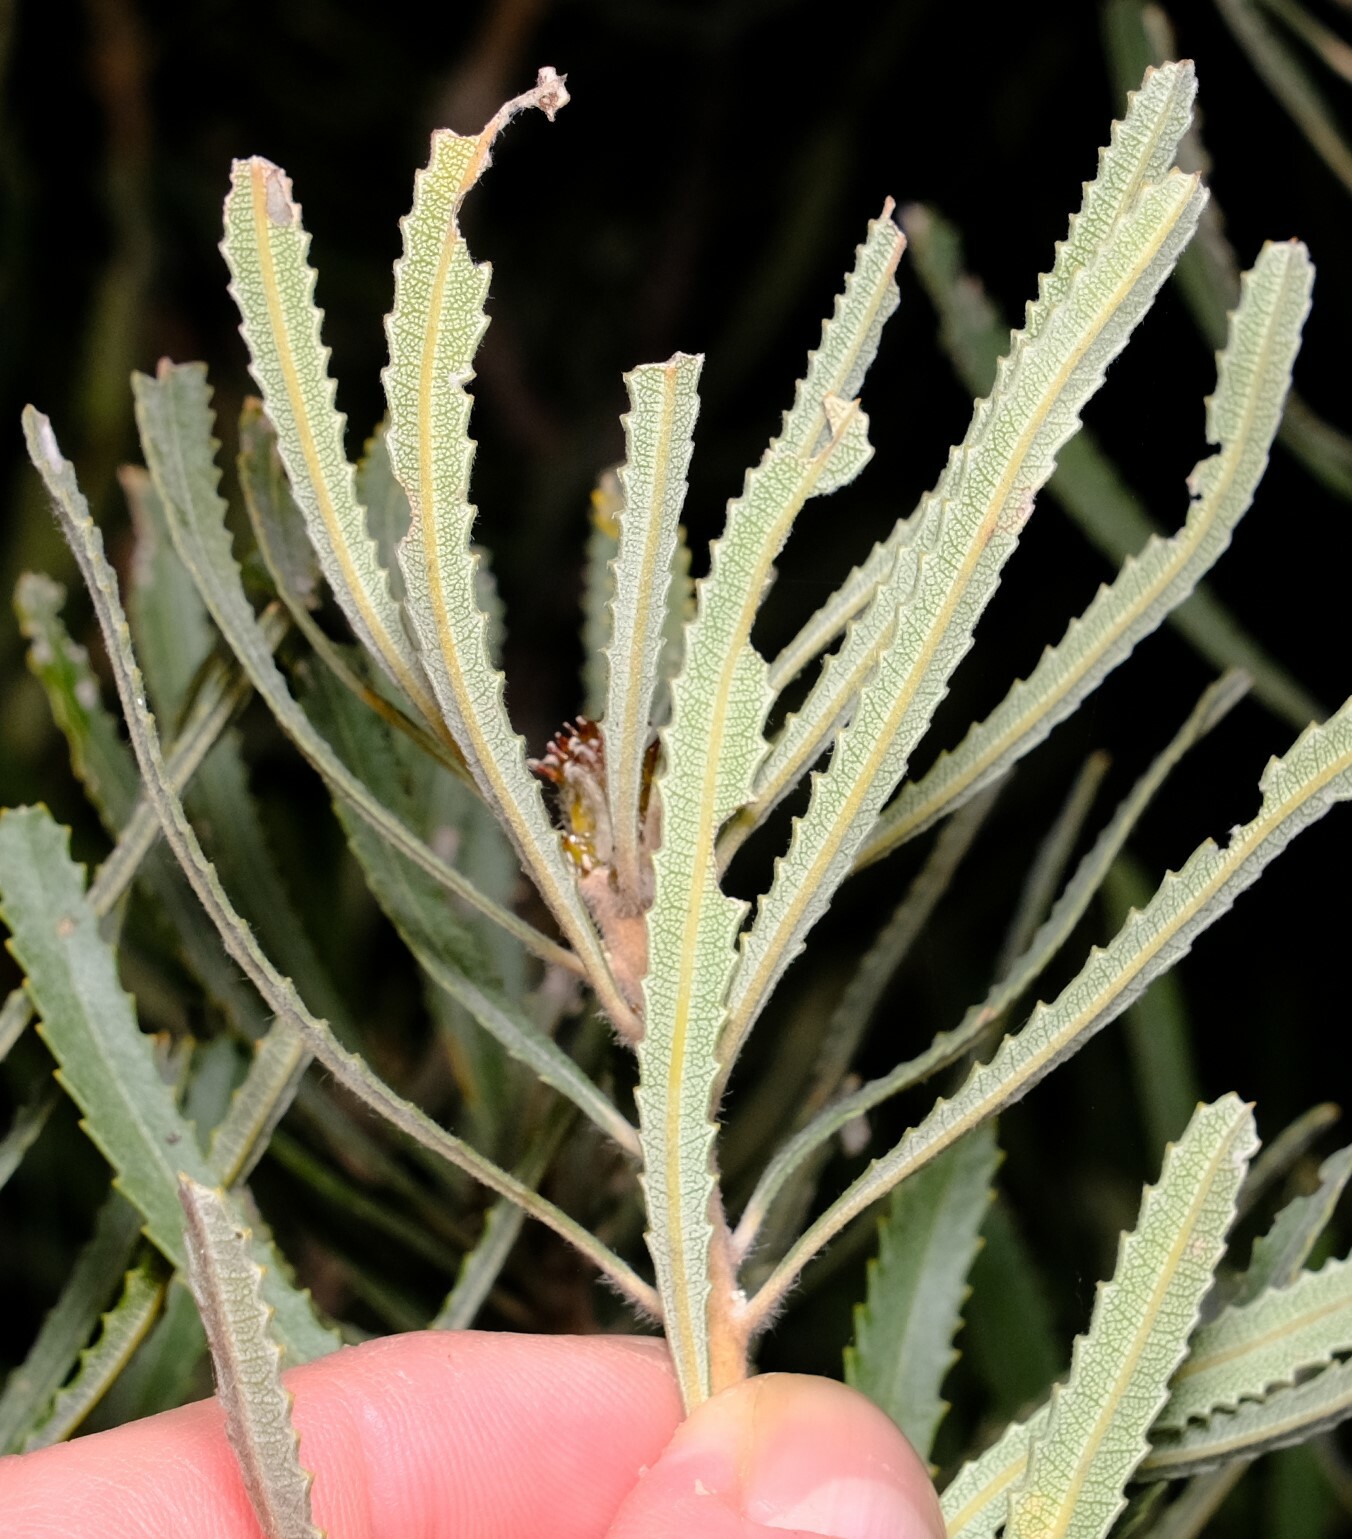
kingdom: Plantae
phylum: Tracheophyta
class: Magnoliopsida
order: Proteales
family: Proteaceae
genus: Banksia
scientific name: Banksia attenuata
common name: Coast banksia
